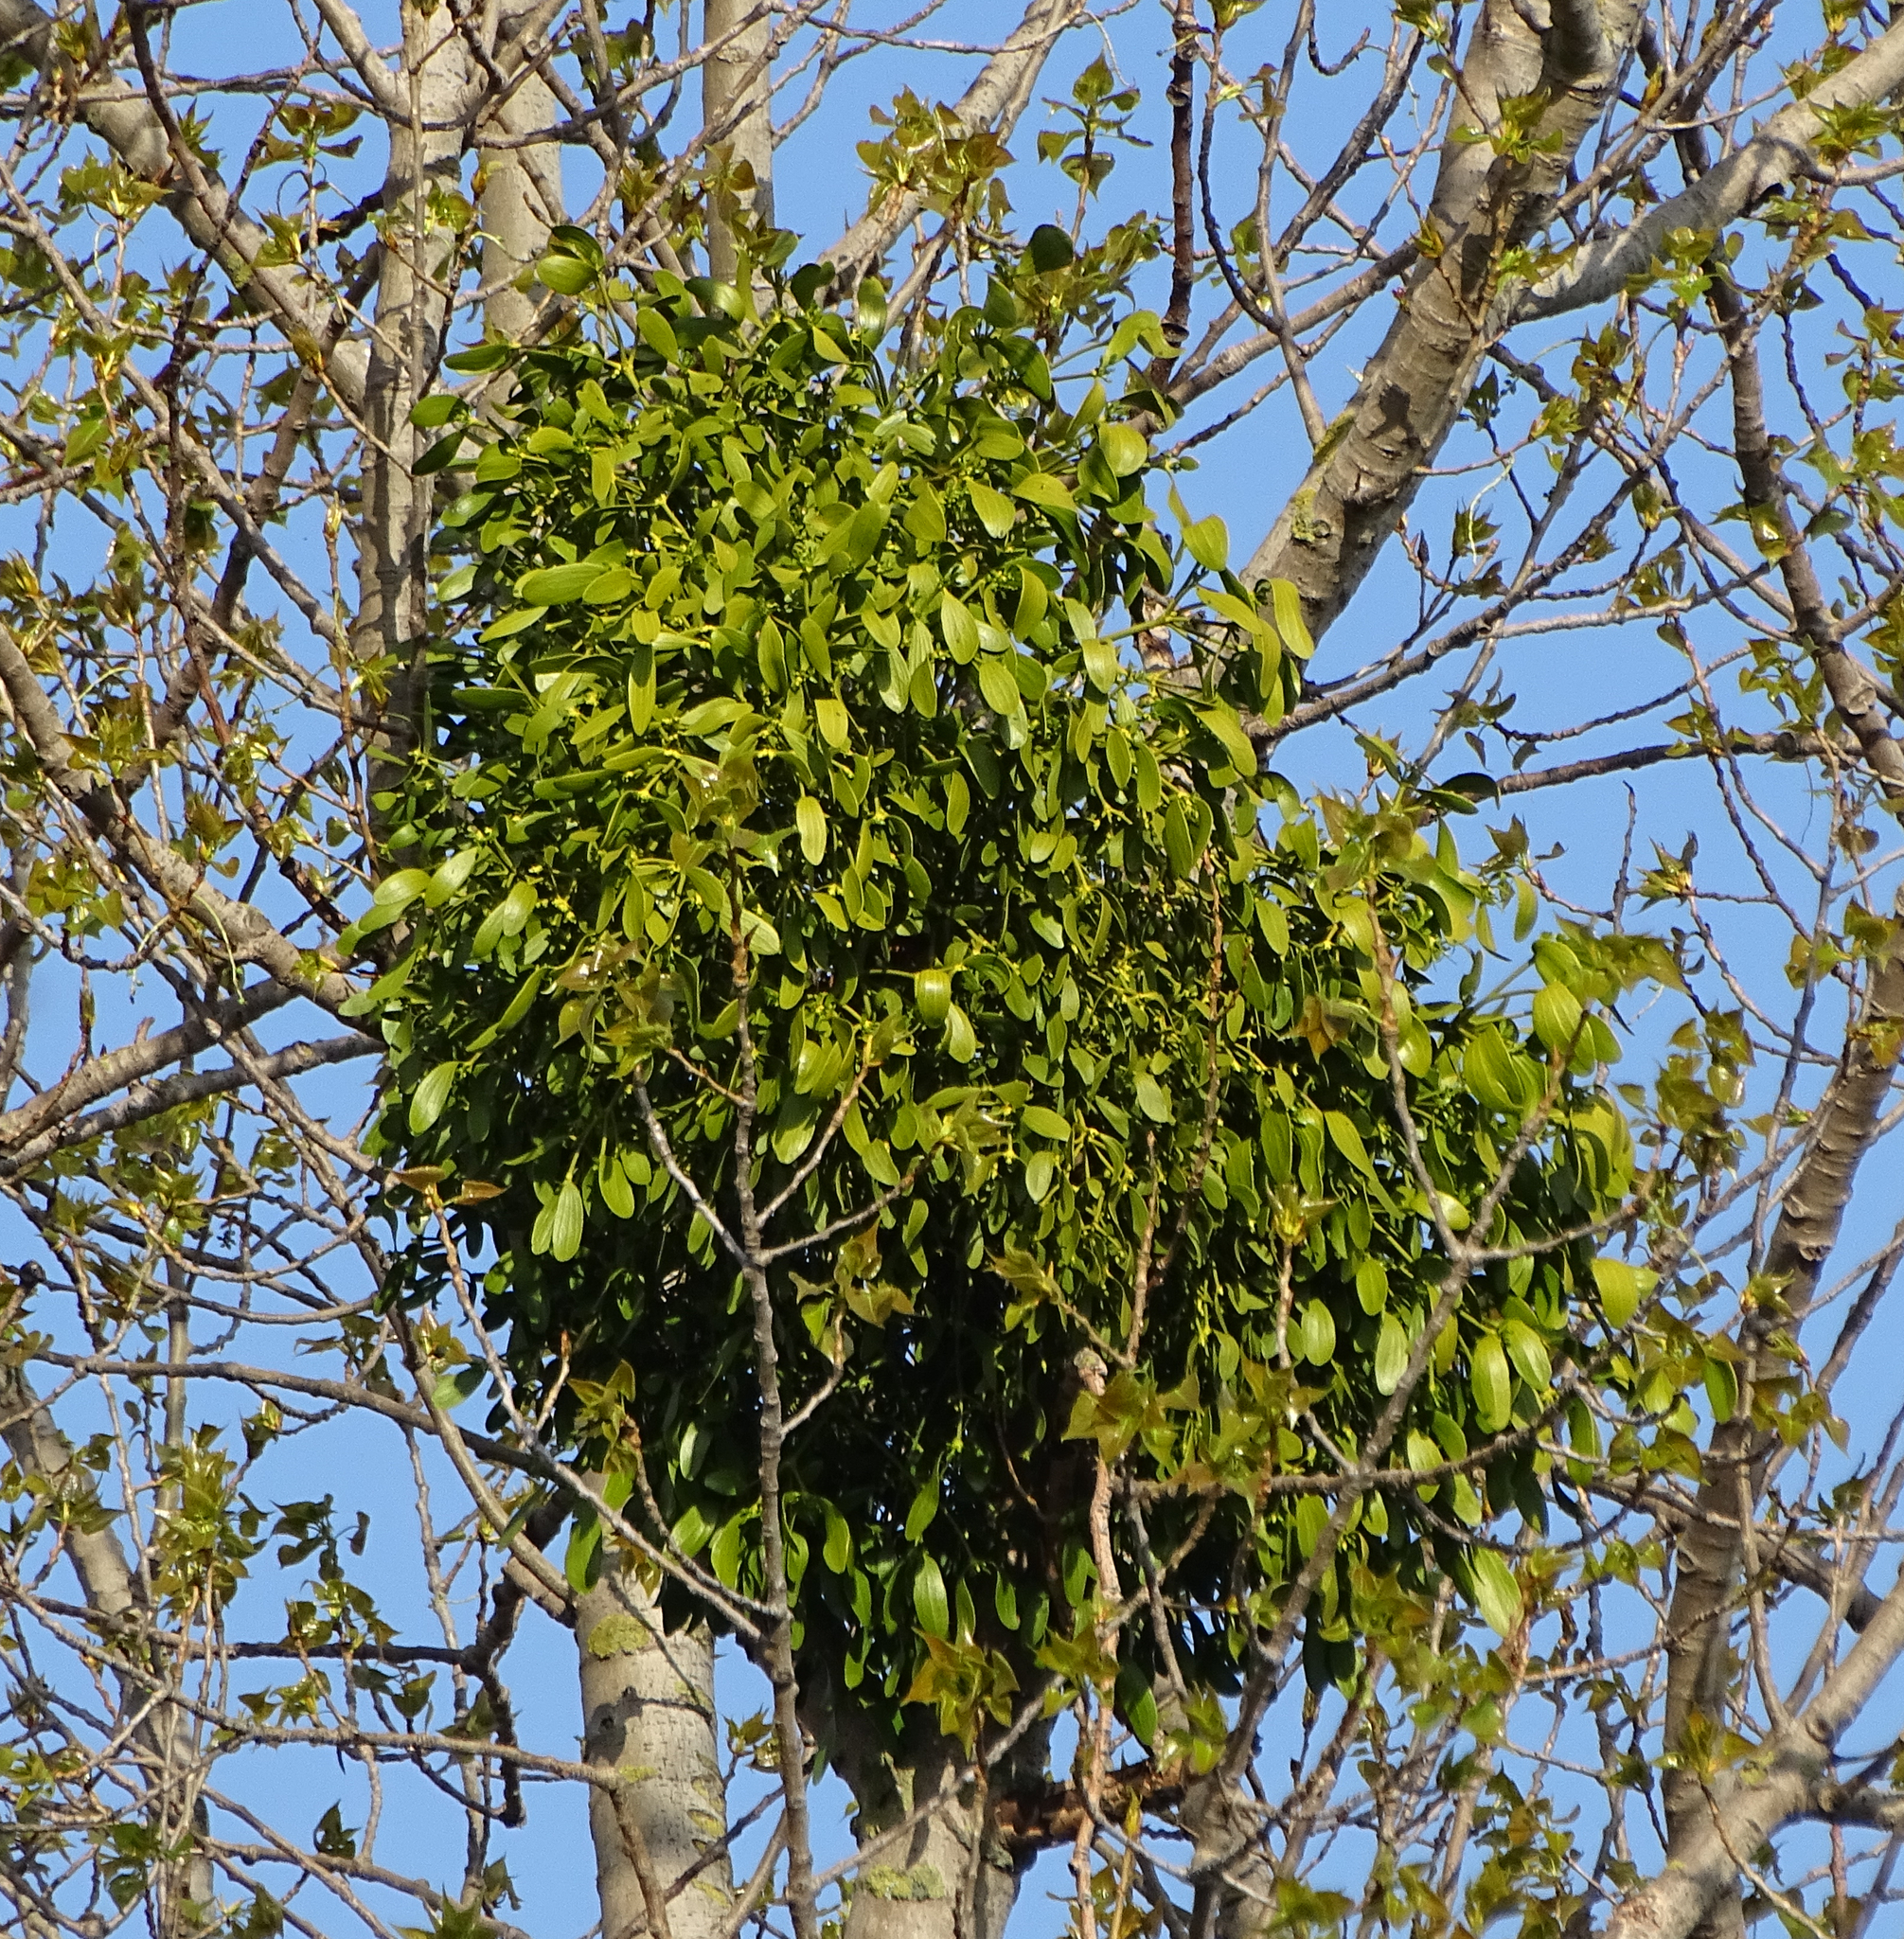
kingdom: Plantae
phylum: Tracheophyta
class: Magnoliopsida
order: Santalales
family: Viscaceae
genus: Viscum
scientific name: Viscum album
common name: Mistletoe
